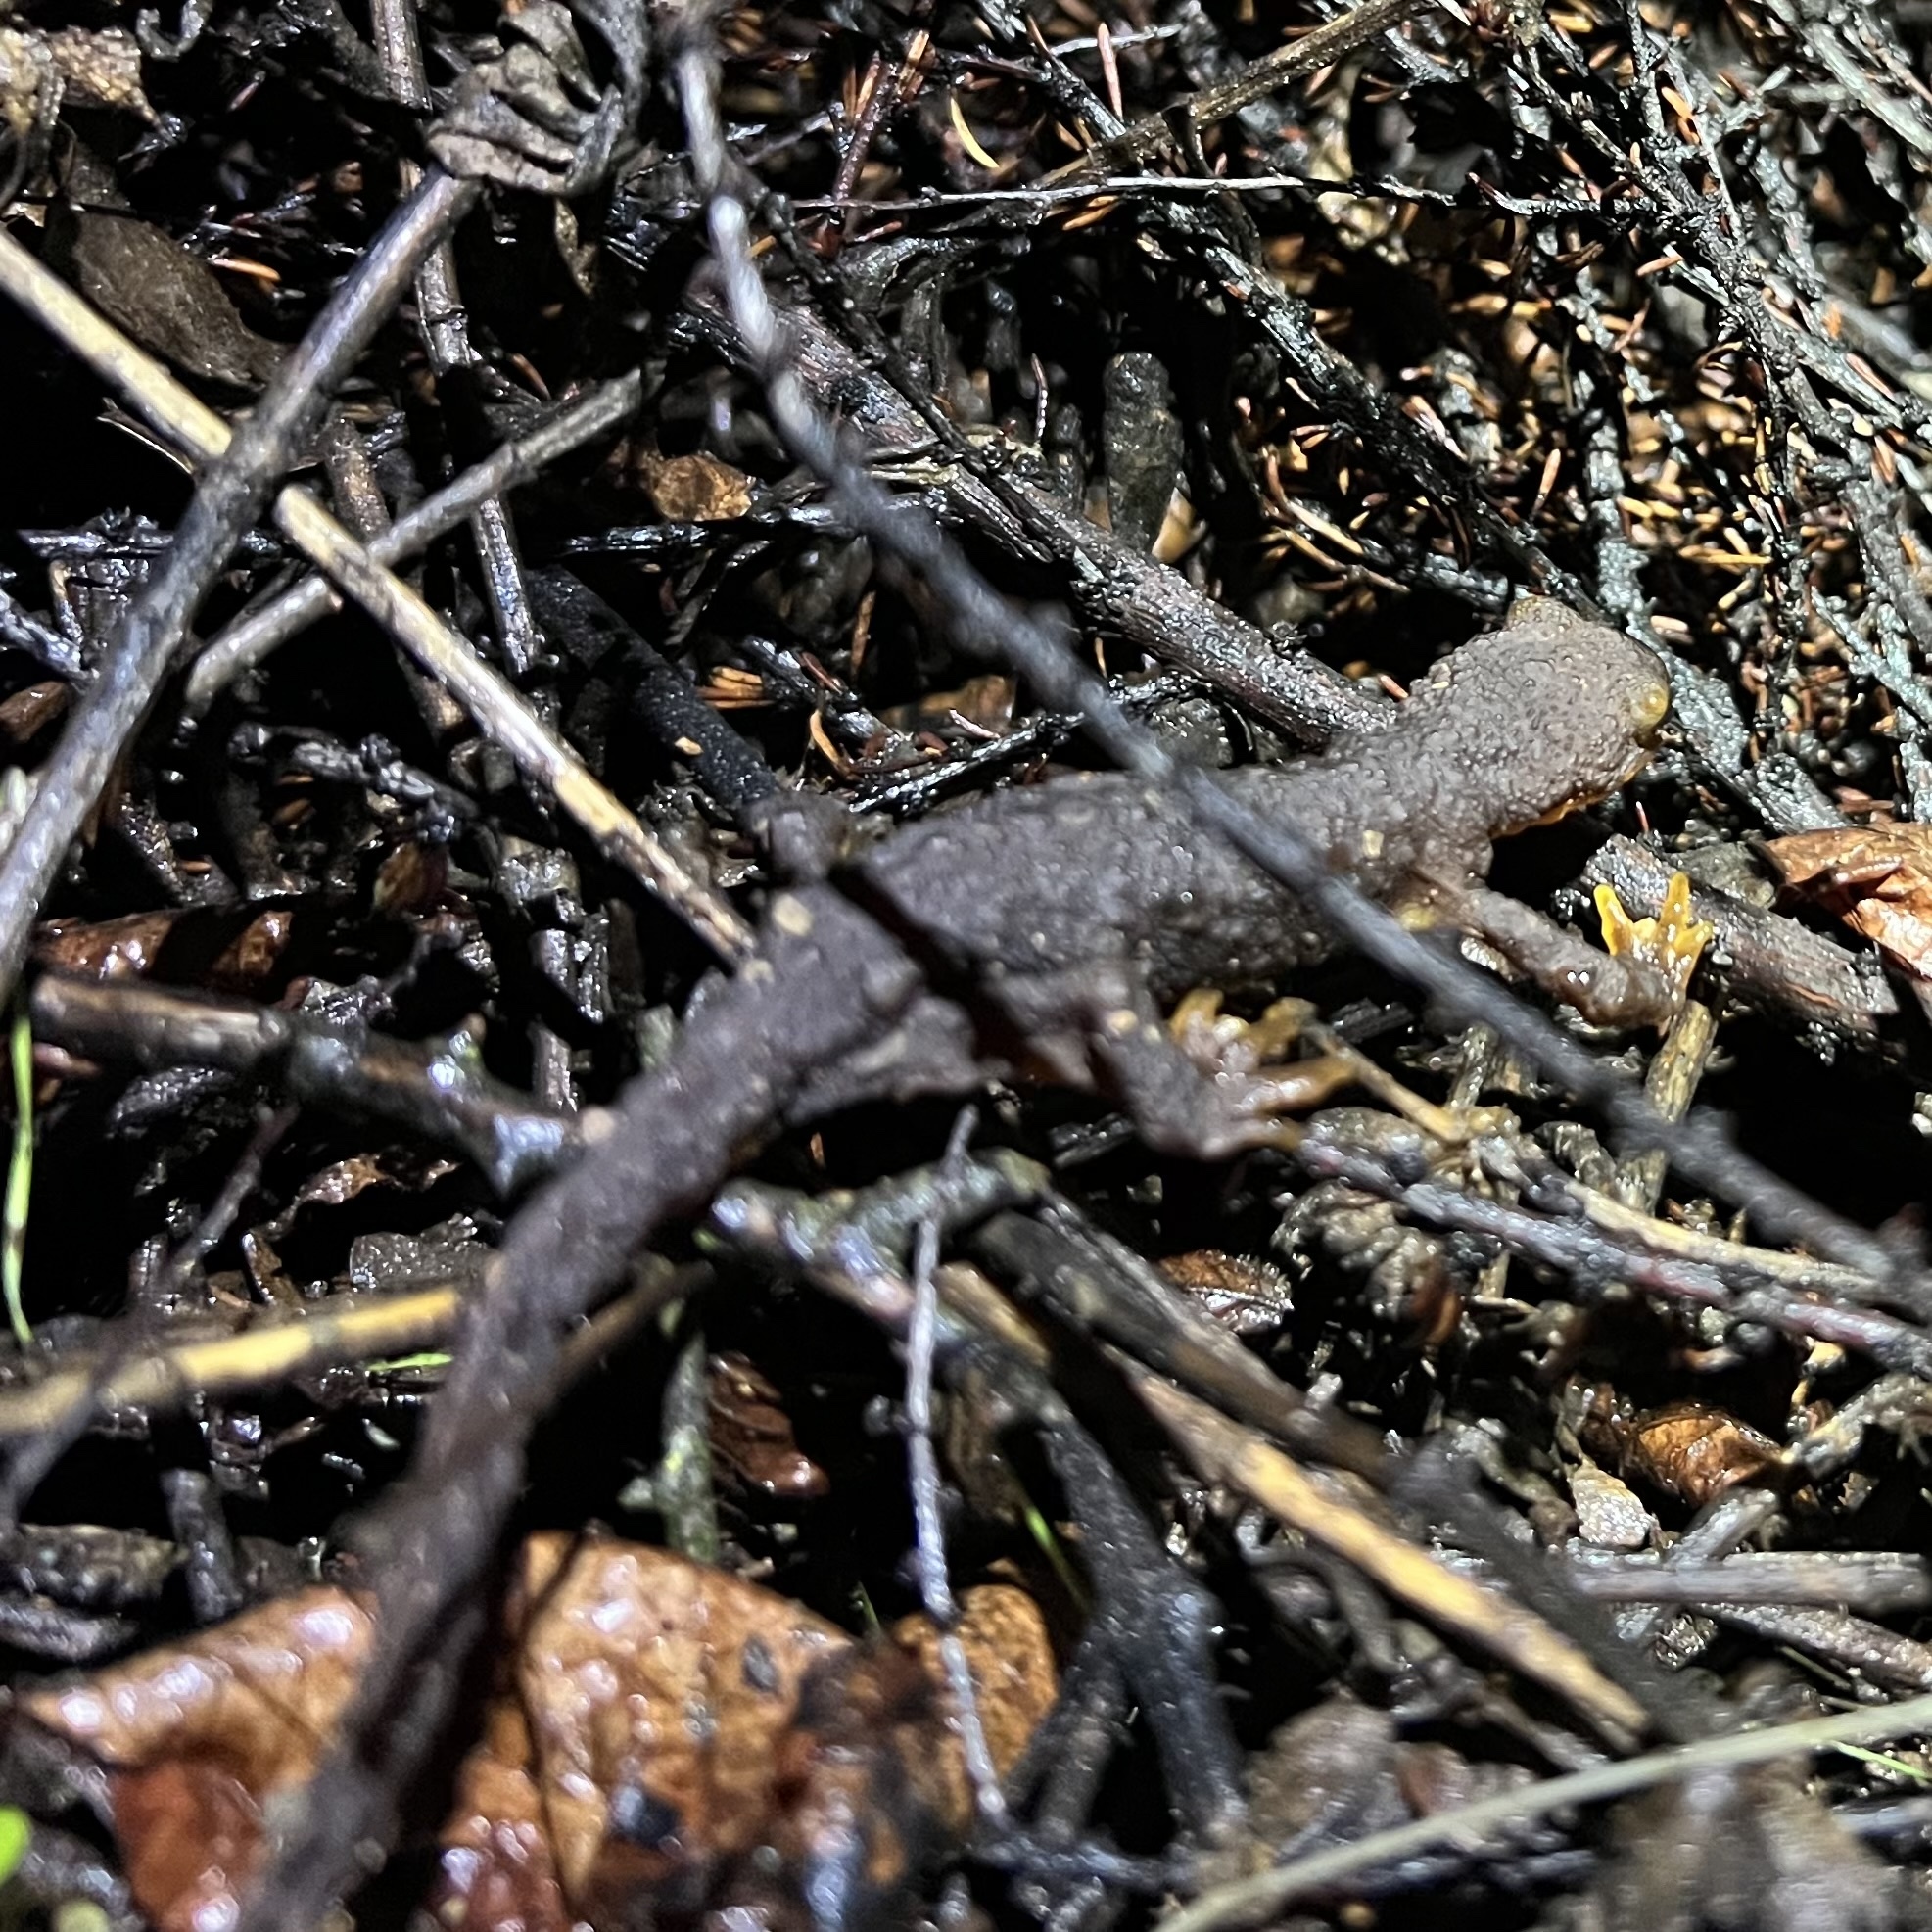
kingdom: Animalia
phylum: Chordata
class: Amphibia
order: Caudata
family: Salamandridae
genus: Taricha
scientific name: Taricha torosa
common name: California newt
